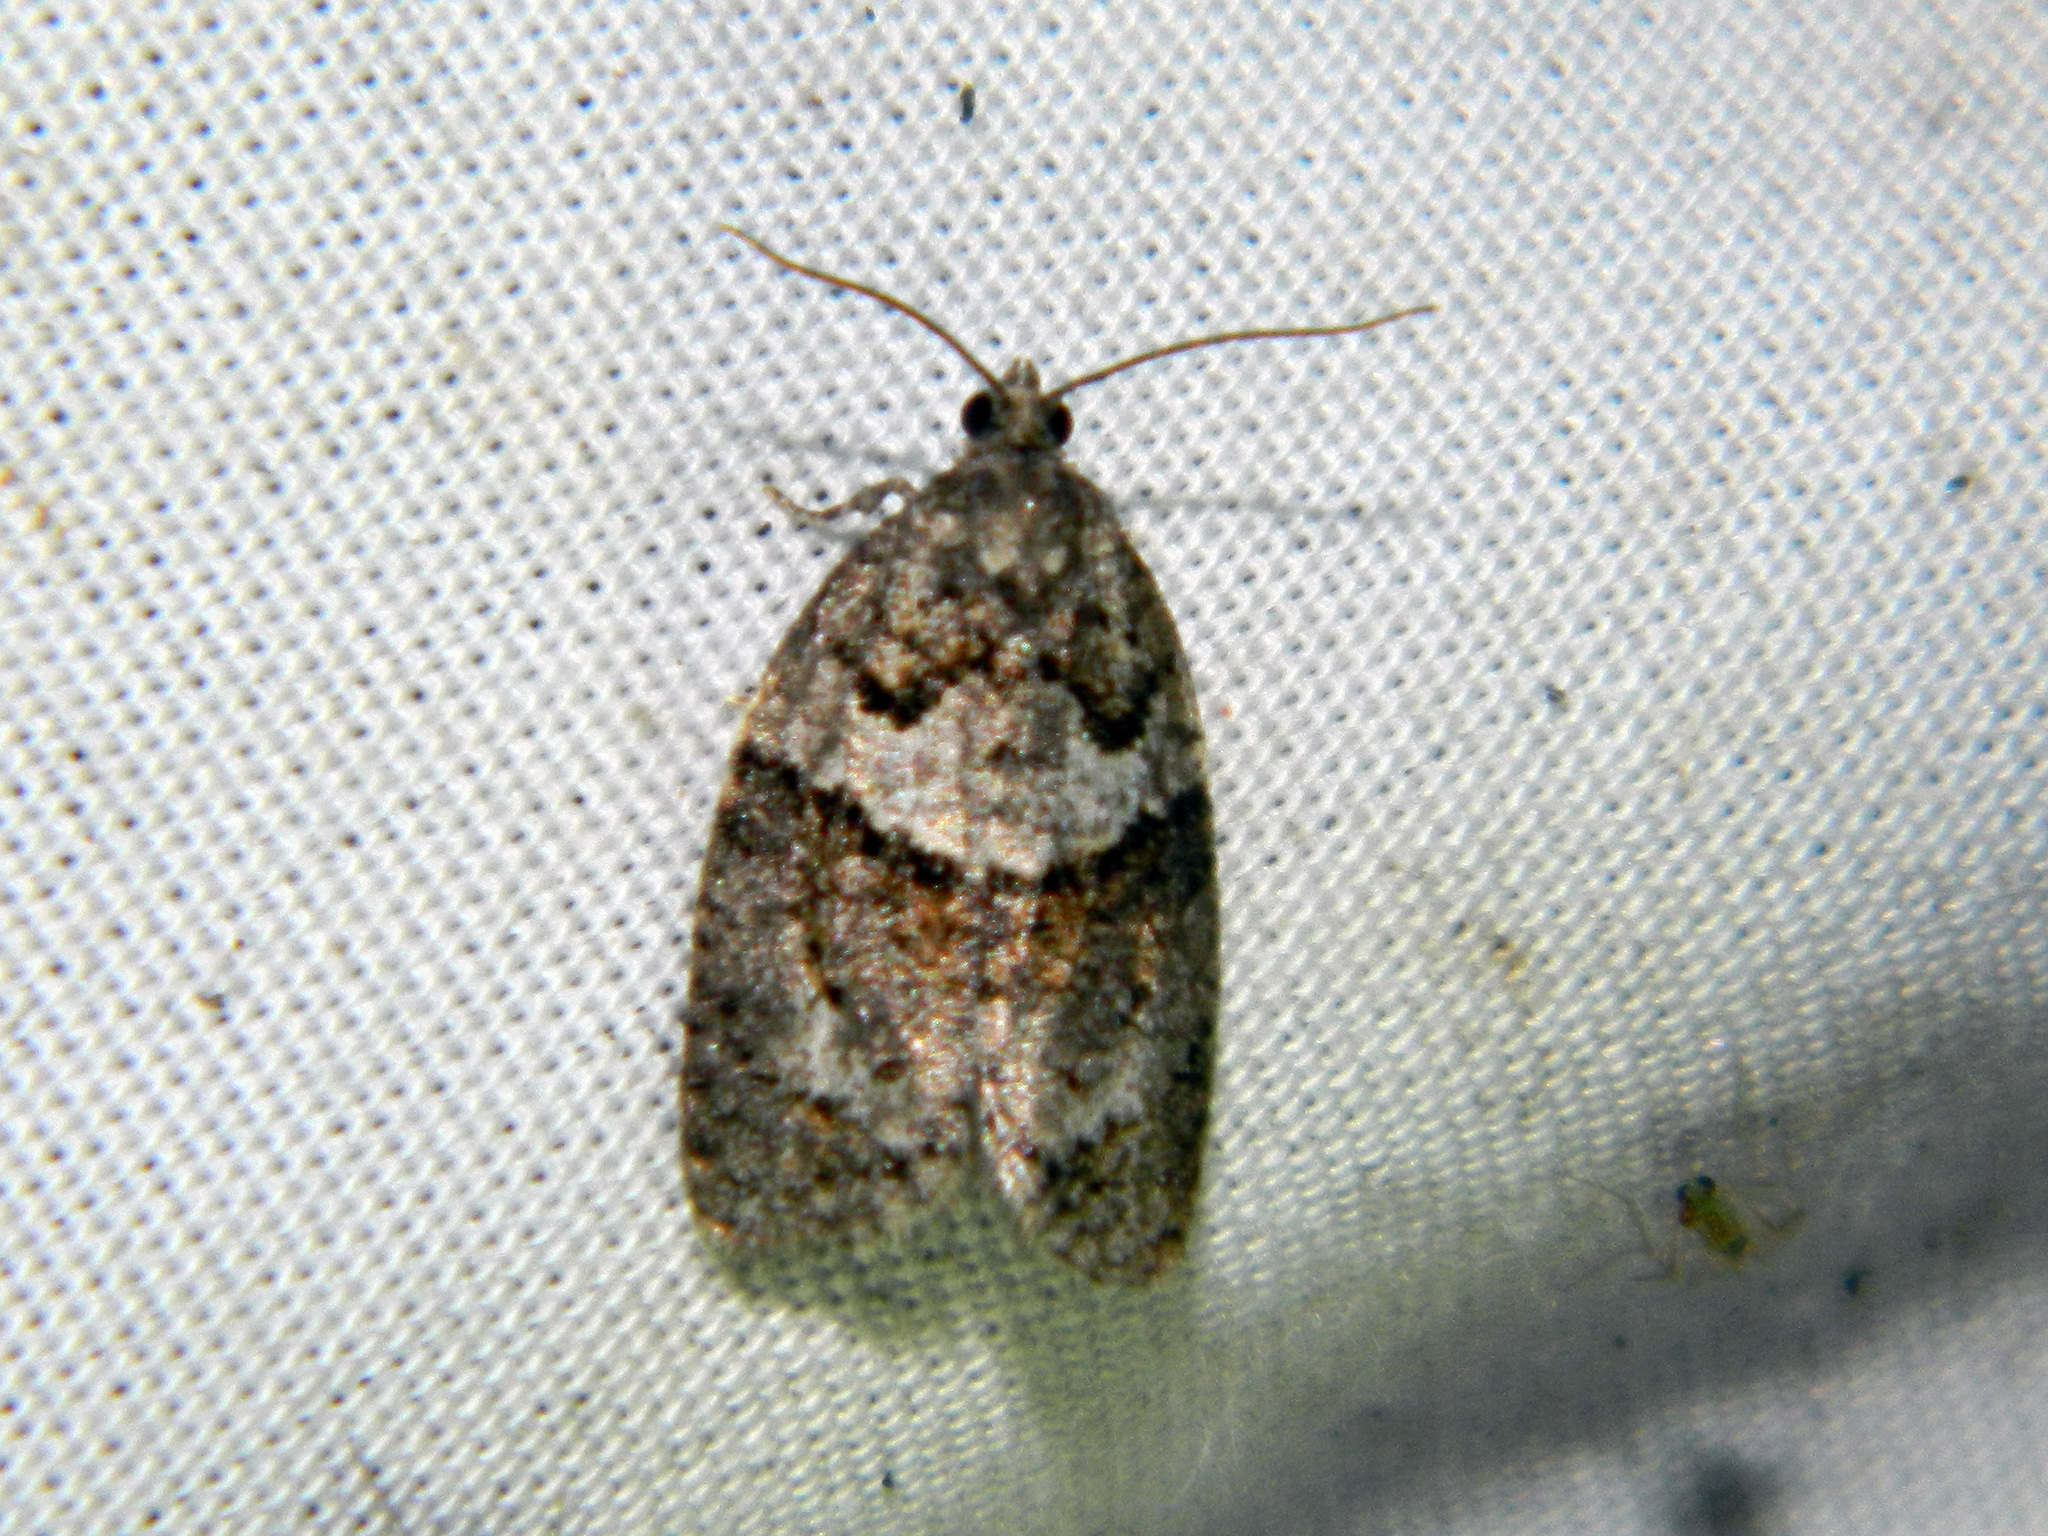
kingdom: Animalia
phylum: Arthropoda
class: Insecta
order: Lepidoptera
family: Tortricidae
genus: Syndemis
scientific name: Syndemis afflictana
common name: Gray leafroller moth
